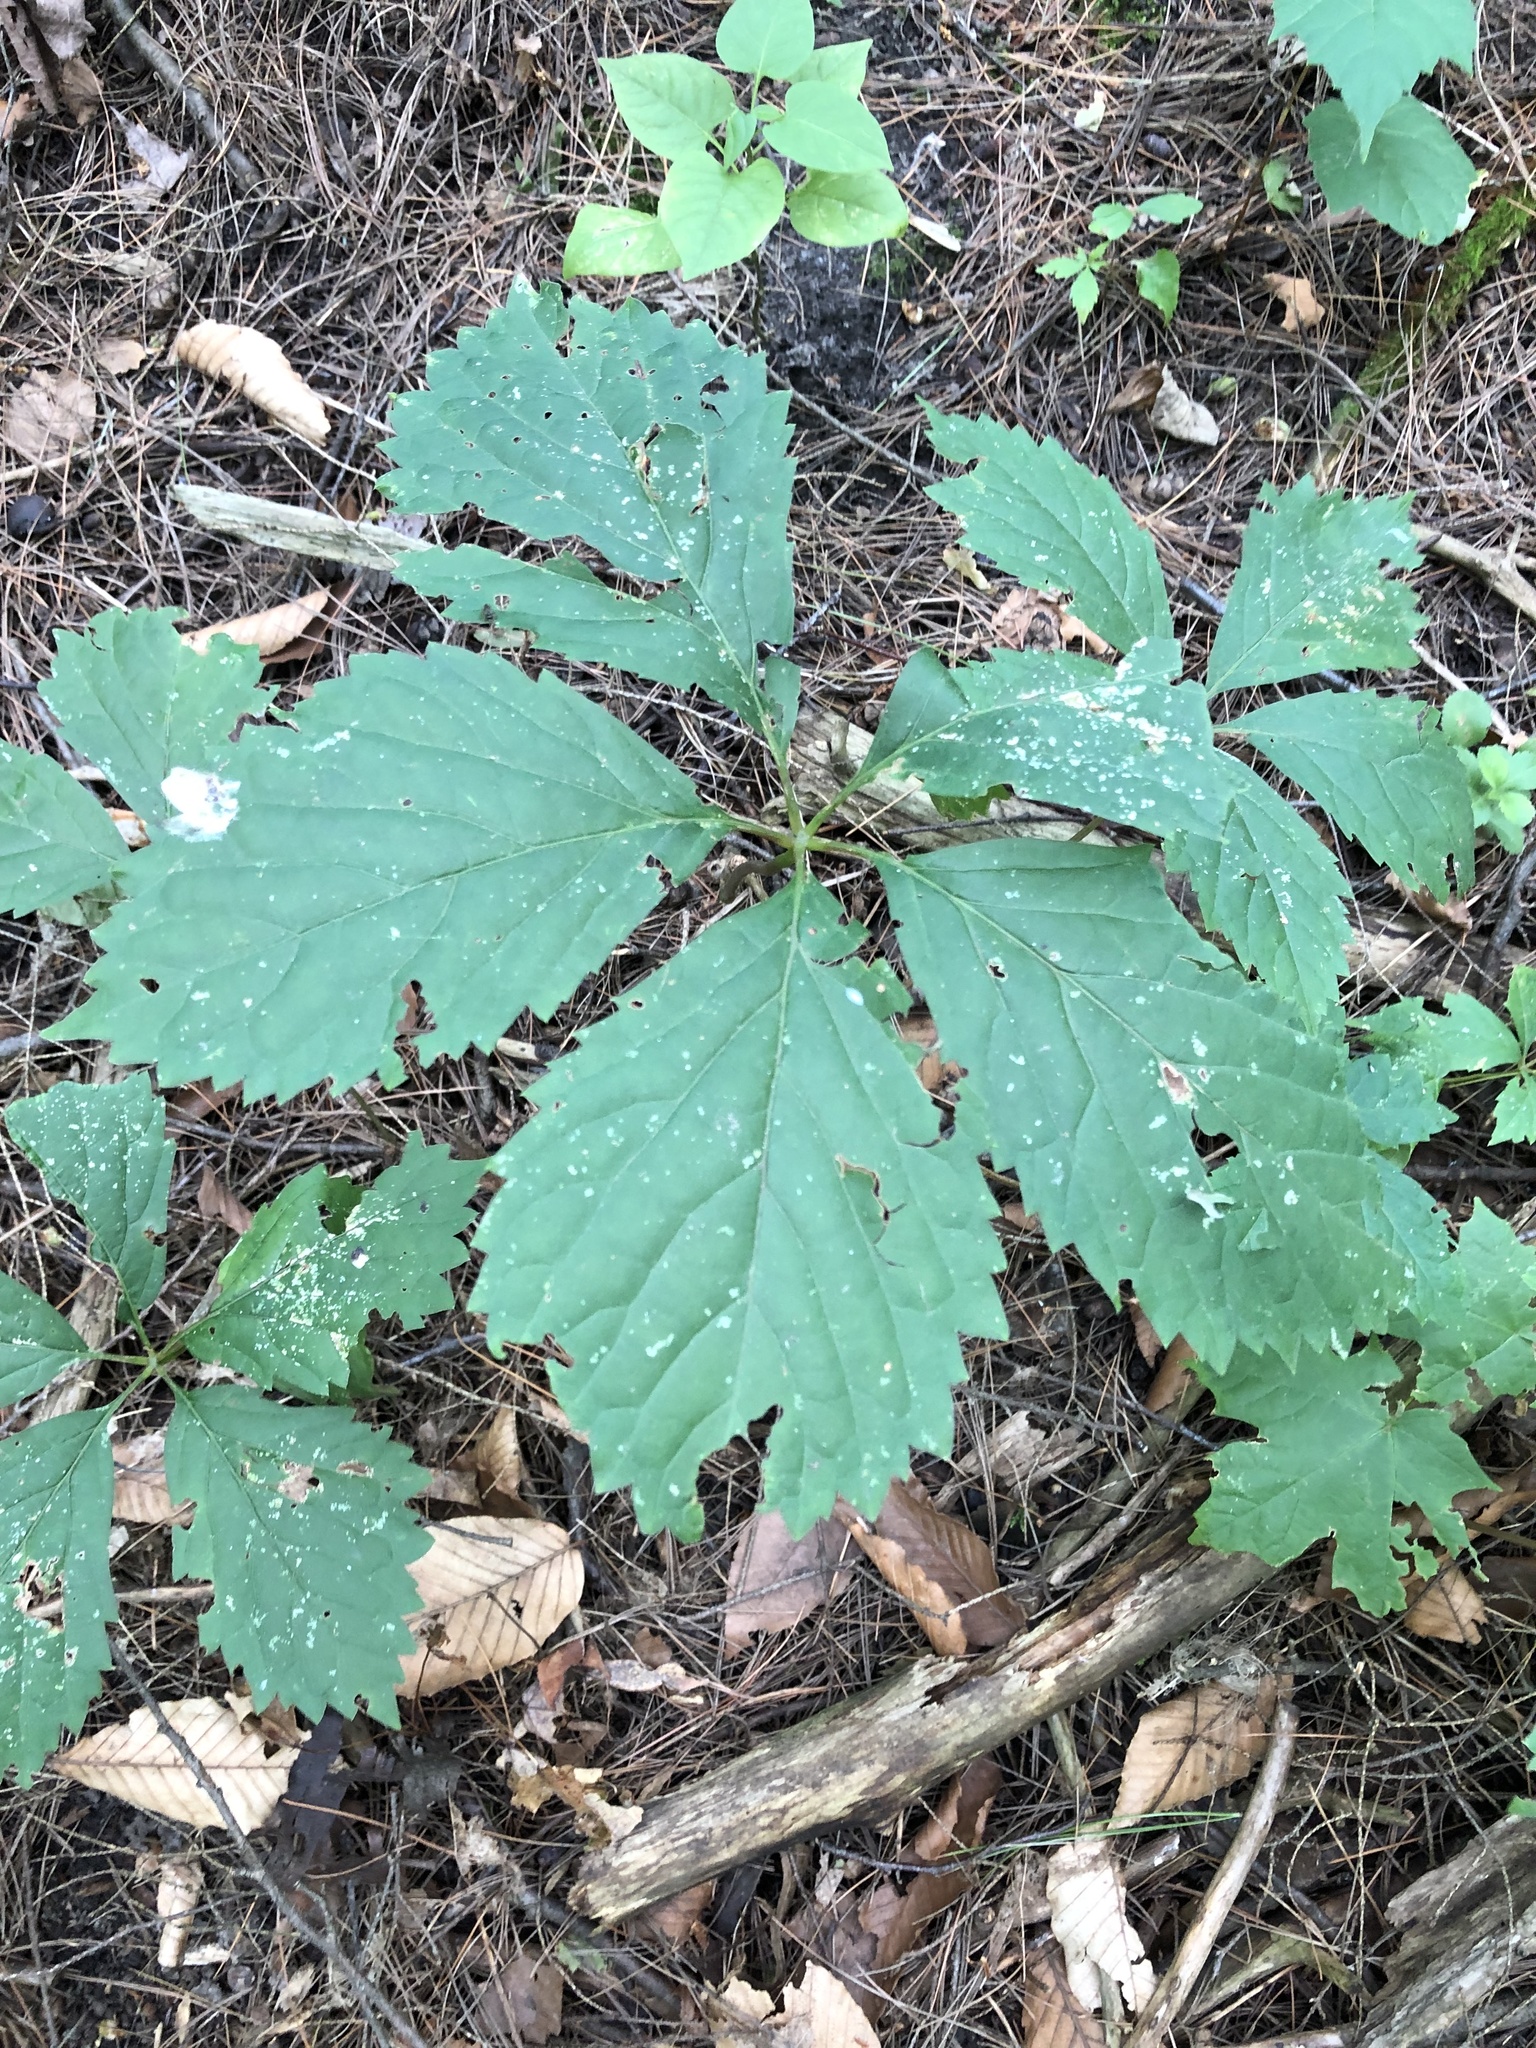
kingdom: Plantae
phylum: Tracheophyta
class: Magnoliopsida
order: Vitales
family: Vitaceae
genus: Parthenocissus
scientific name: Parthenocissus inserta
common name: False virginia-creeper
